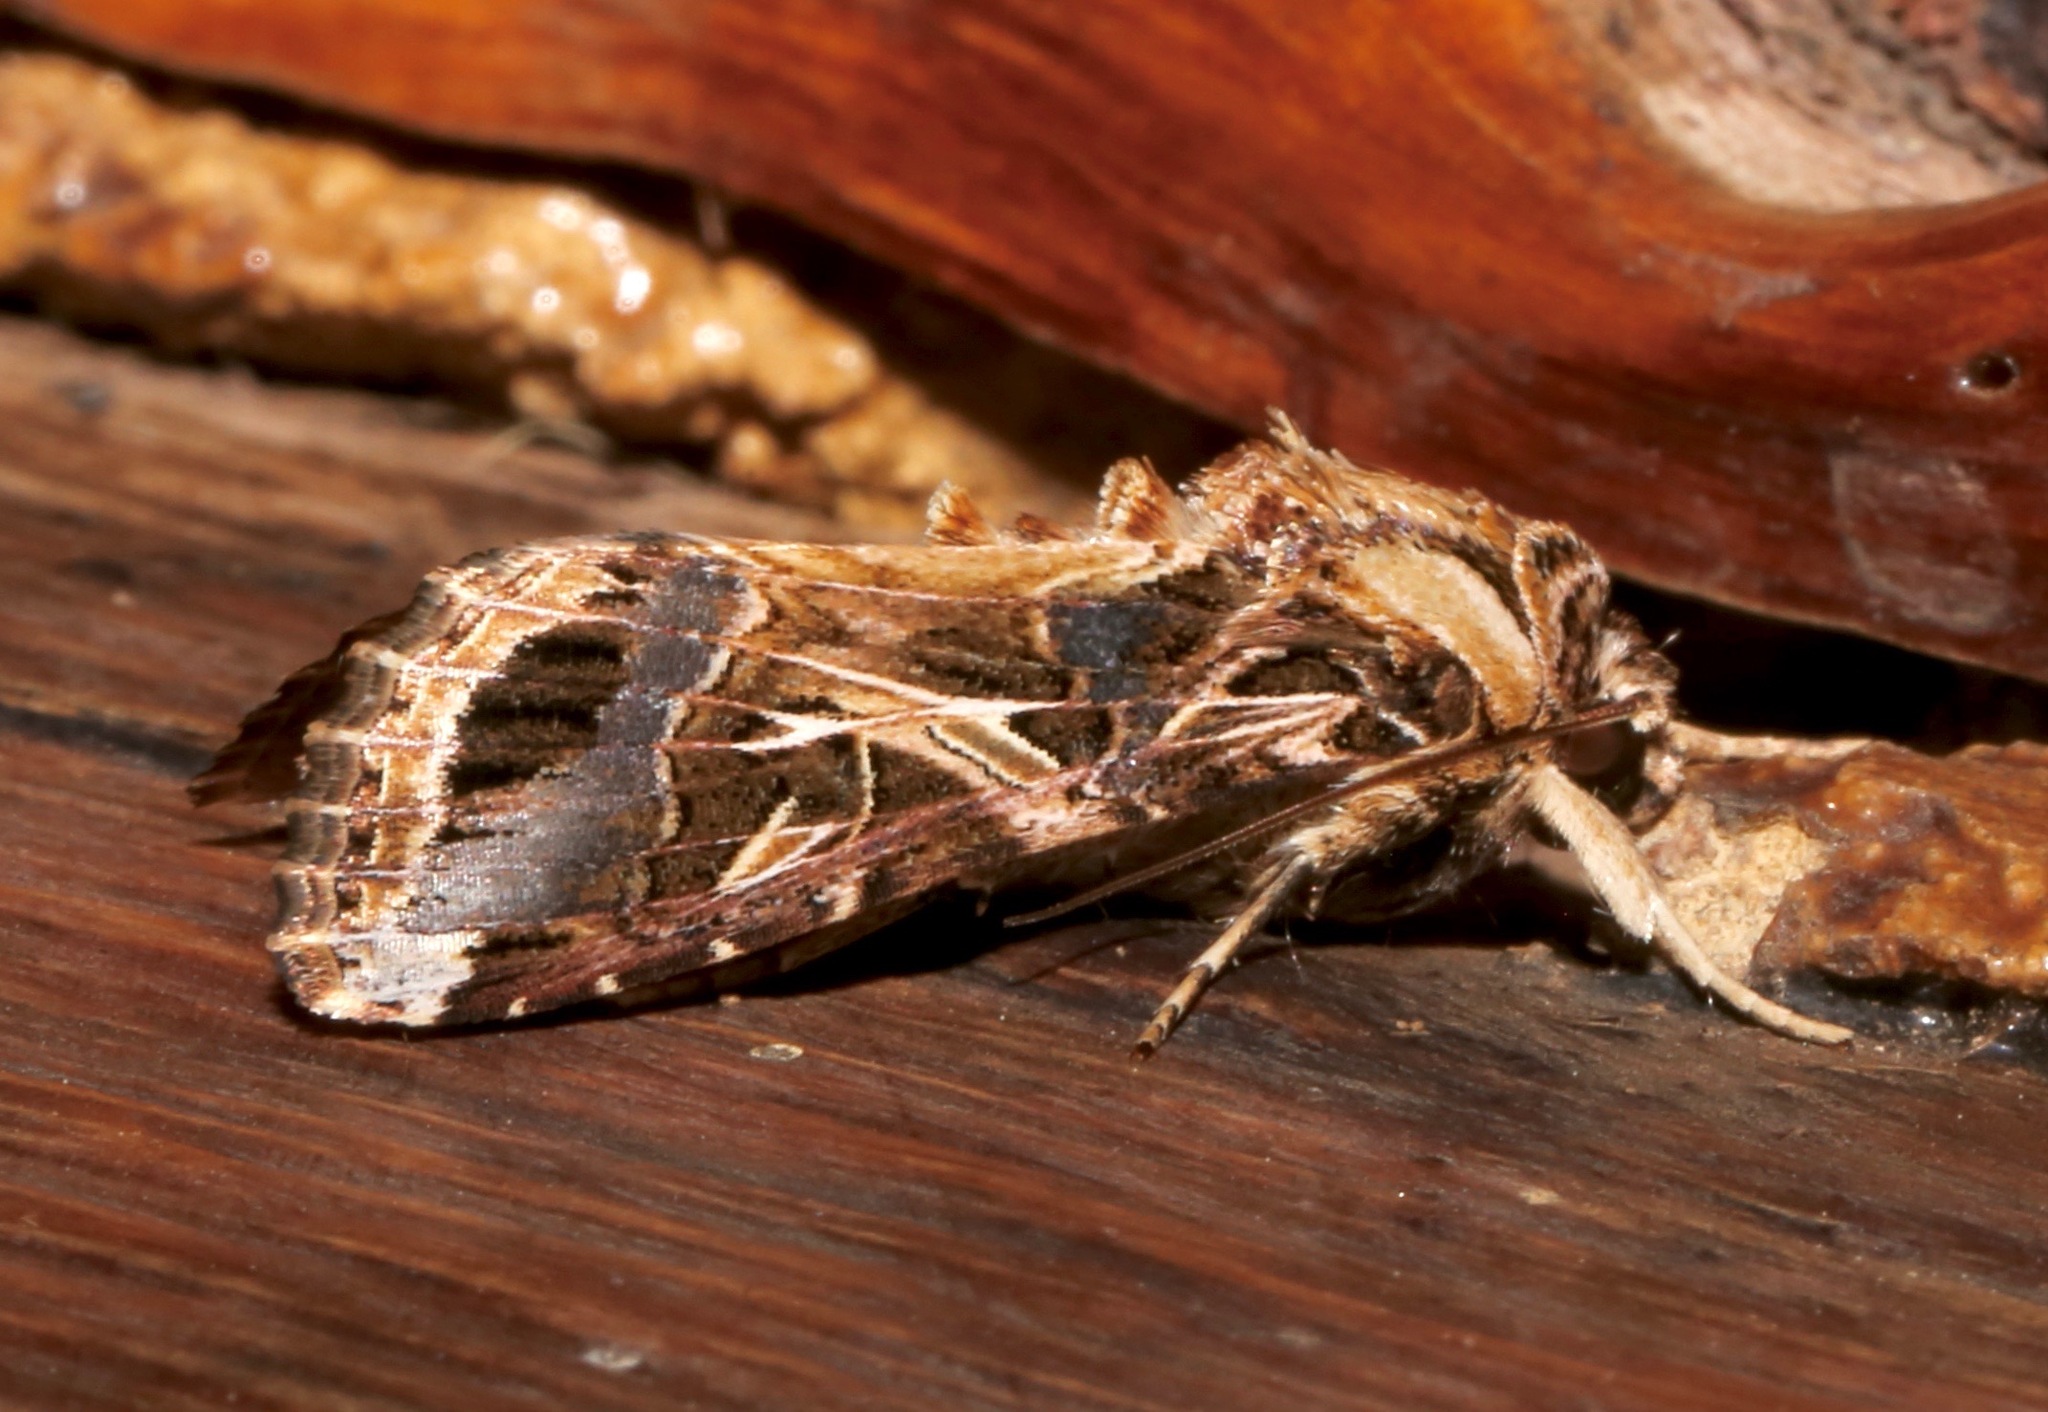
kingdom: Animalia
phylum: Arthropoda
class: Insecta
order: Lepidoptera
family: Noctuidae
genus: Spodoptera
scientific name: Spodoptera littoralis
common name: Egyptian cotton leafworm
